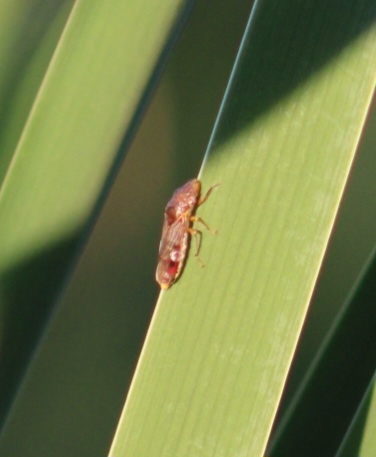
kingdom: Animalia
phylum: Arthropoda
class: Insecta
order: Hemiptera
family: Cicadellidae
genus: Homalodisca
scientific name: Homalodisca liturata
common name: Lacertate sharpshooter
